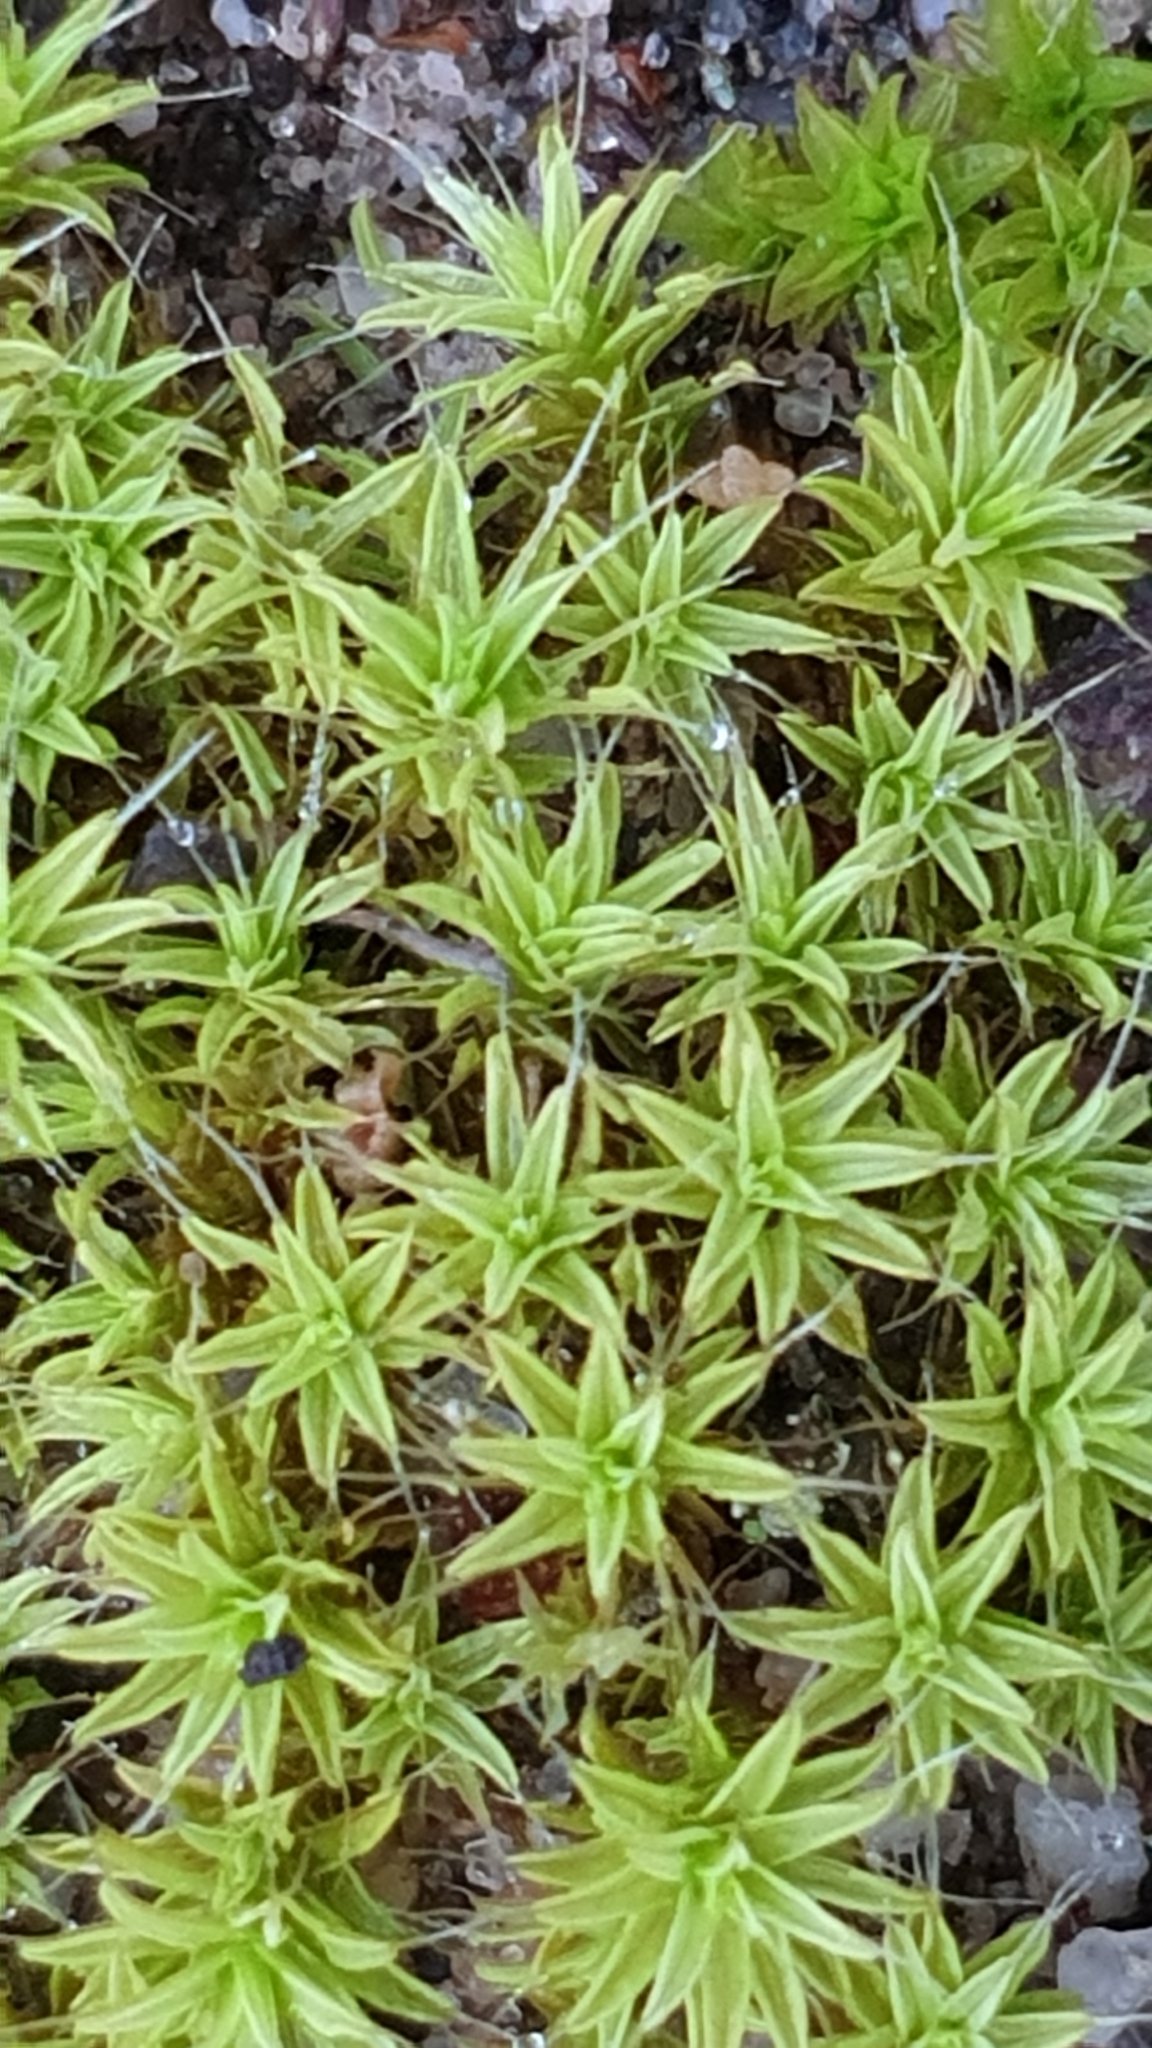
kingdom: Plantae
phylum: Bryophyta
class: Bryopsida
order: Pottiales
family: Pottiaceae
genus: Pseudocrossidium
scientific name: Pseudocrossidium crinitum
